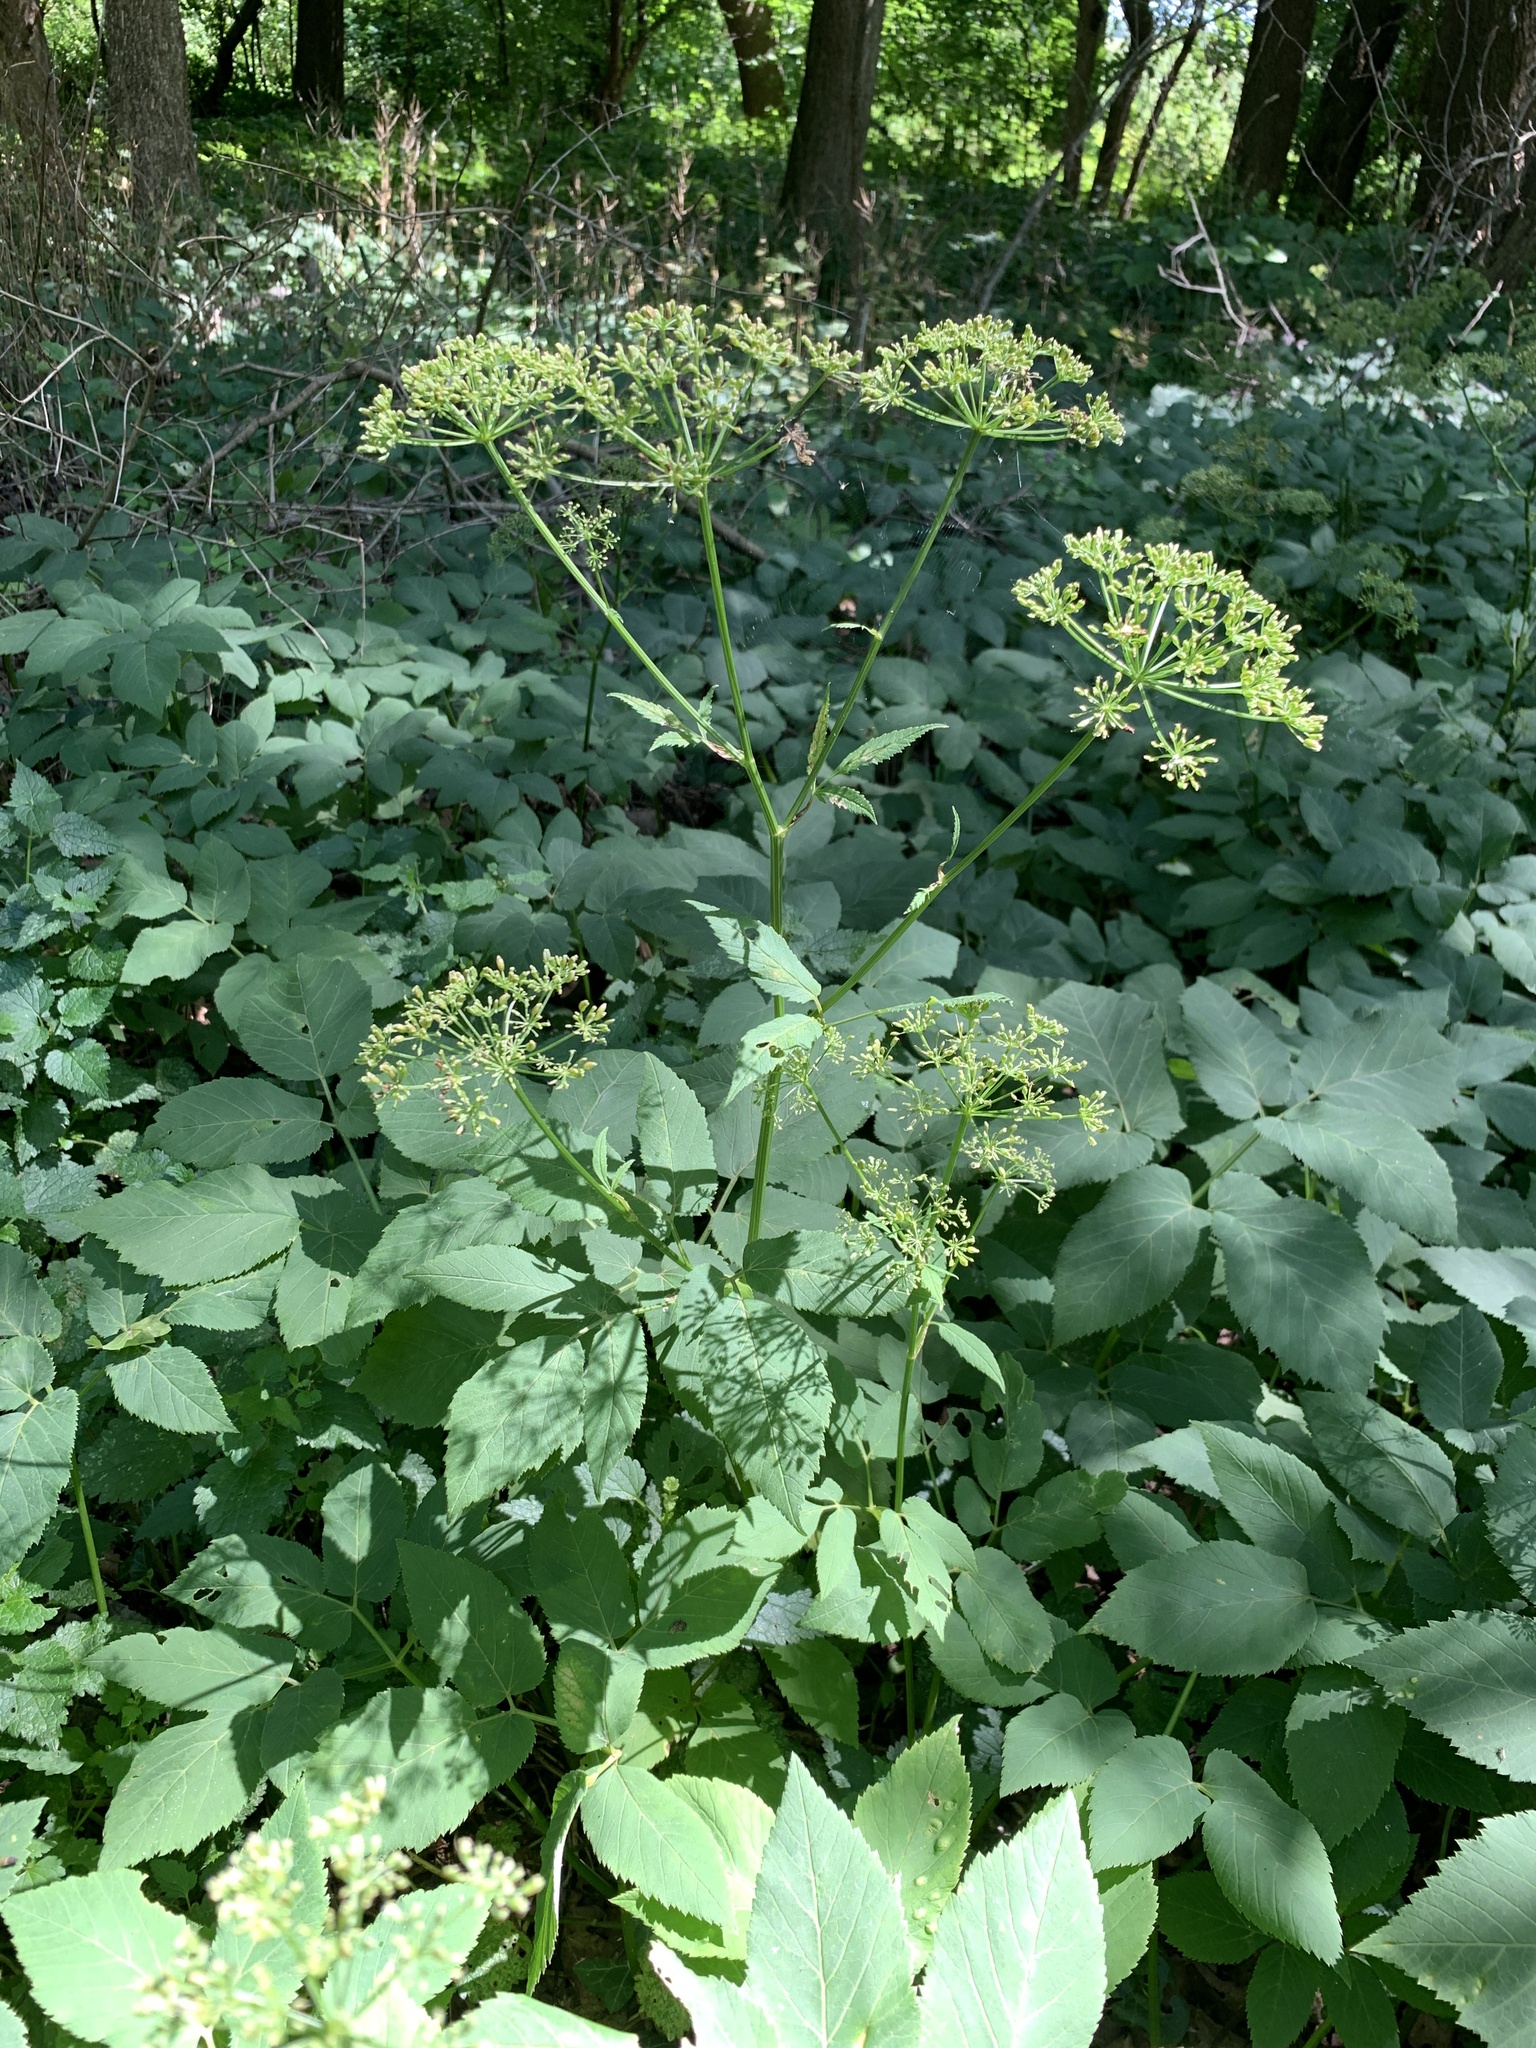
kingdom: Plantae
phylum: Tracheophyta
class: Magnoliopsida
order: Apiales
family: Apiaceae
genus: Aegopodium
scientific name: Aegopodium podagraria
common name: Ground-elder
